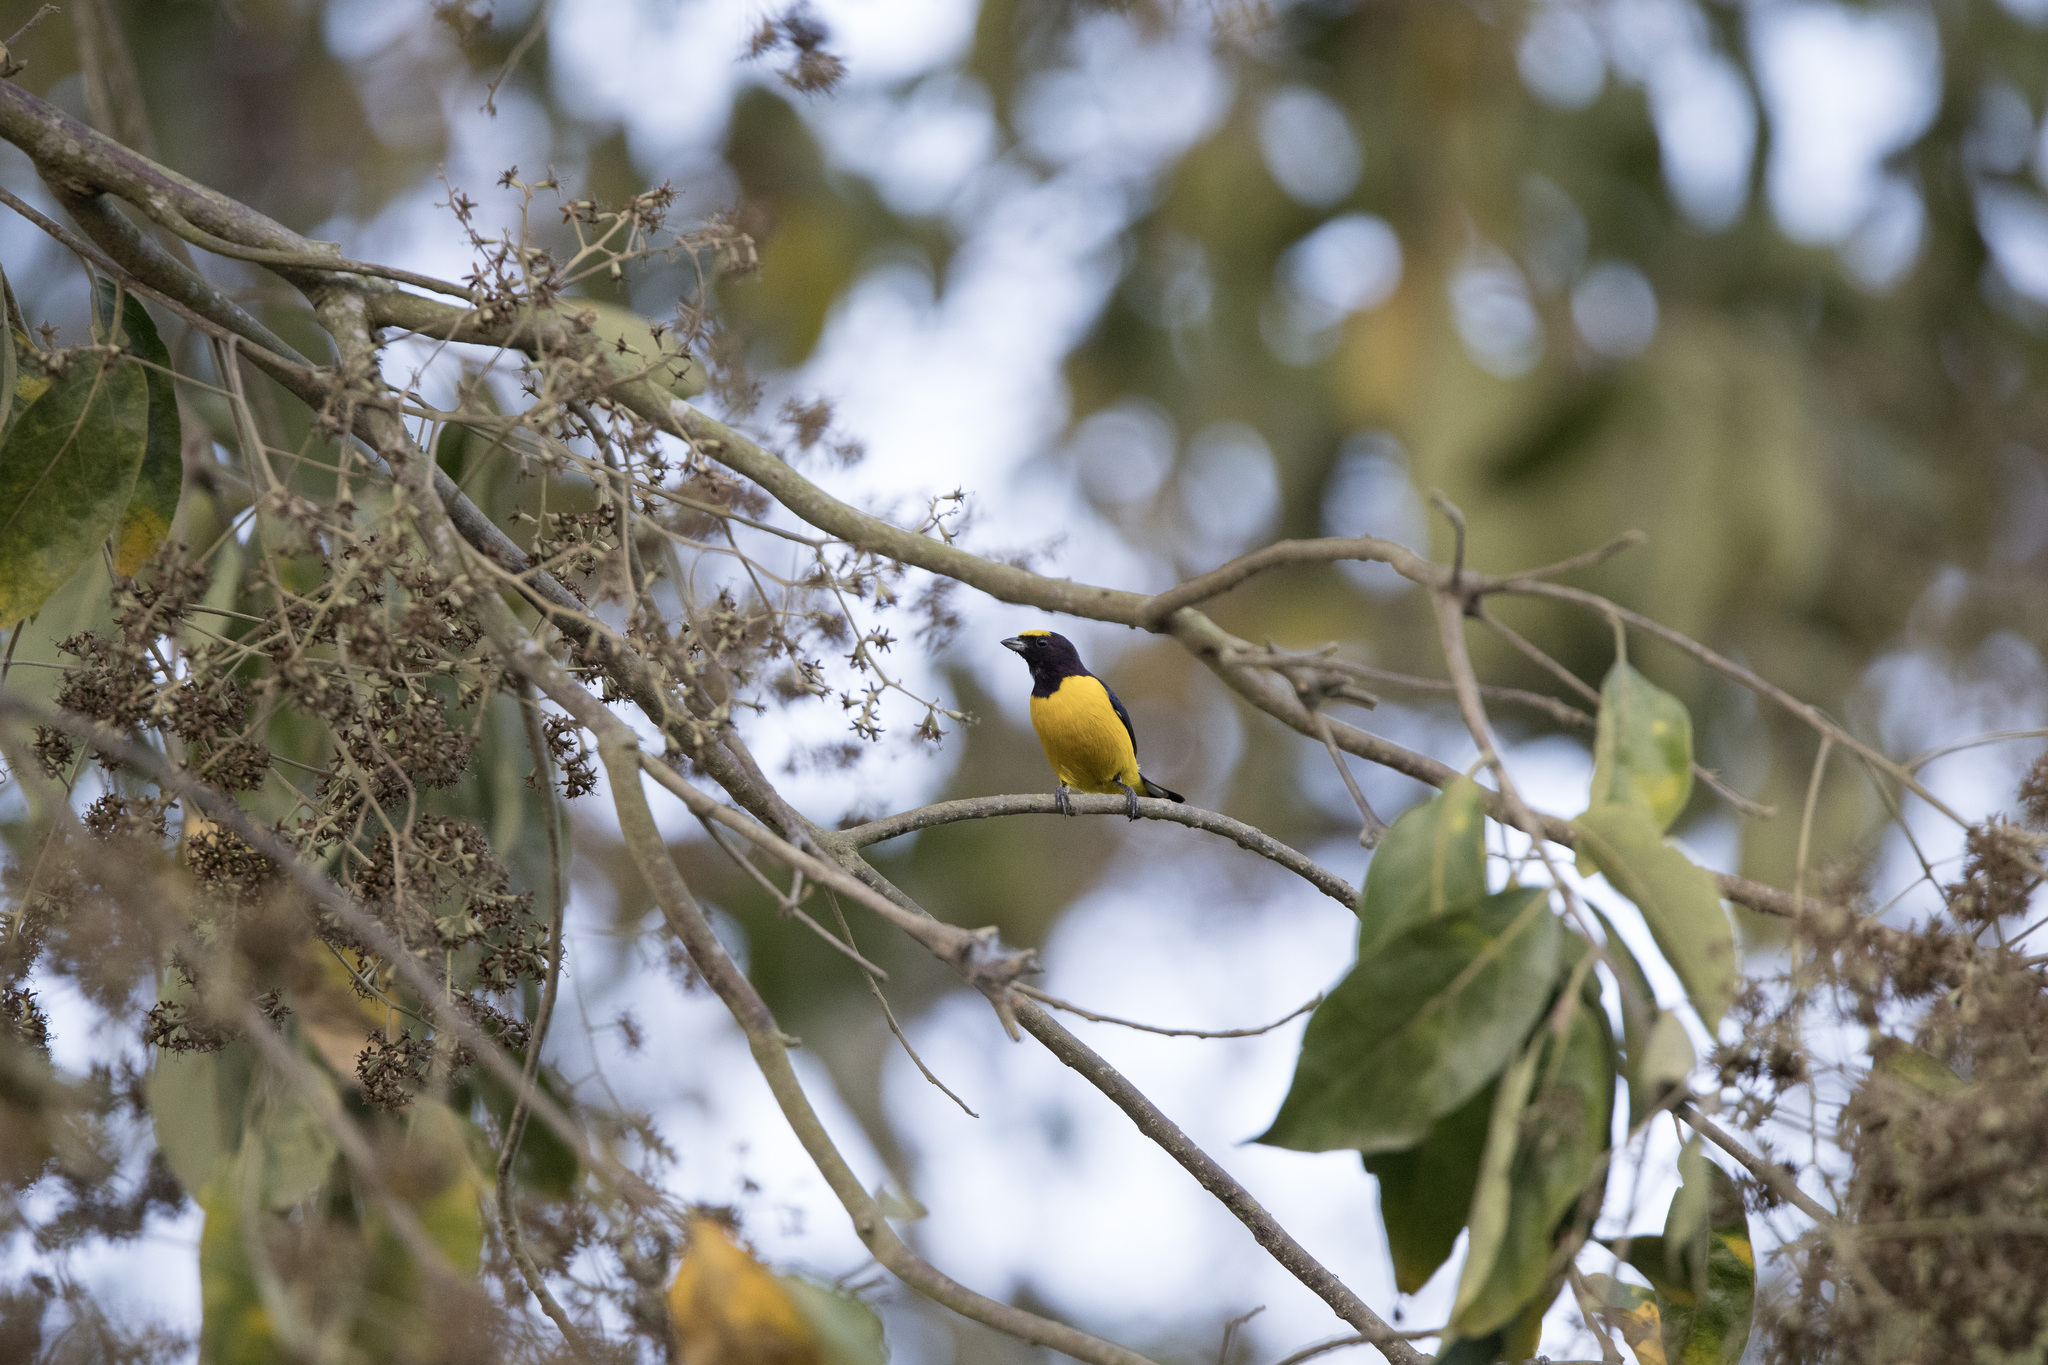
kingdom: Animalia
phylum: Chordata
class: Aves
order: Passeriformes
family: Fringillidae
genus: Euphonia
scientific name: Euphonia chlorotica
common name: Purple-throated euphonia
